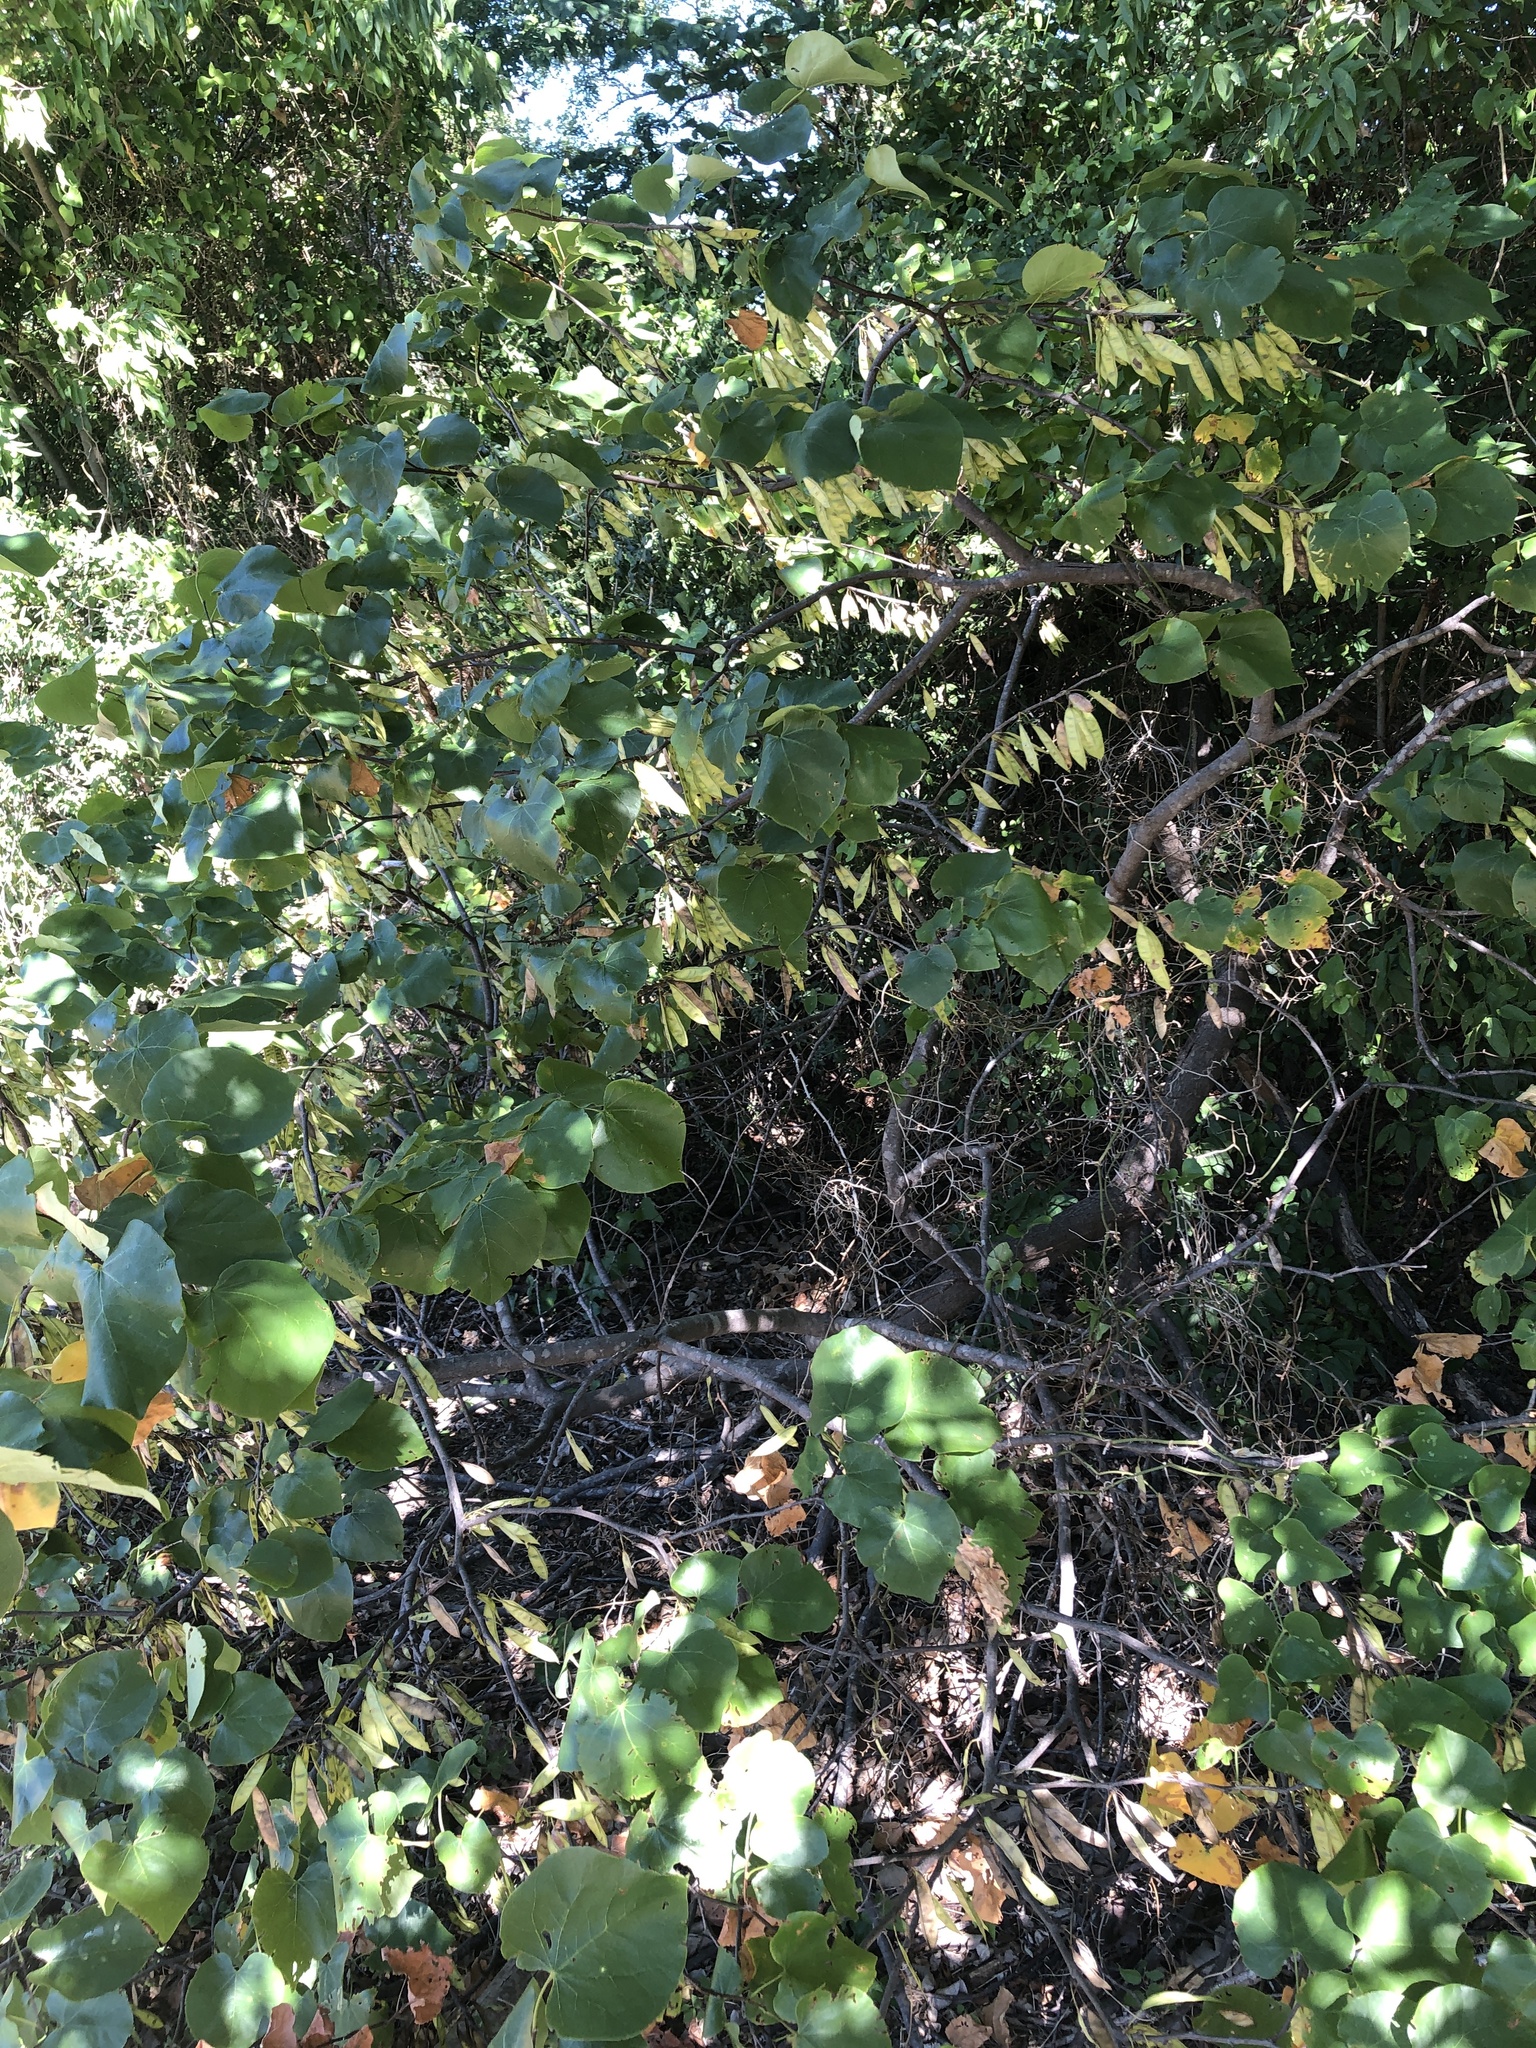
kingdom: Plantae
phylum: Tracheophyta
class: Magnoliopsida
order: Fabales
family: Fabaceae
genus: Cercis
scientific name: Cercis canadensis
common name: Eastern redbud
